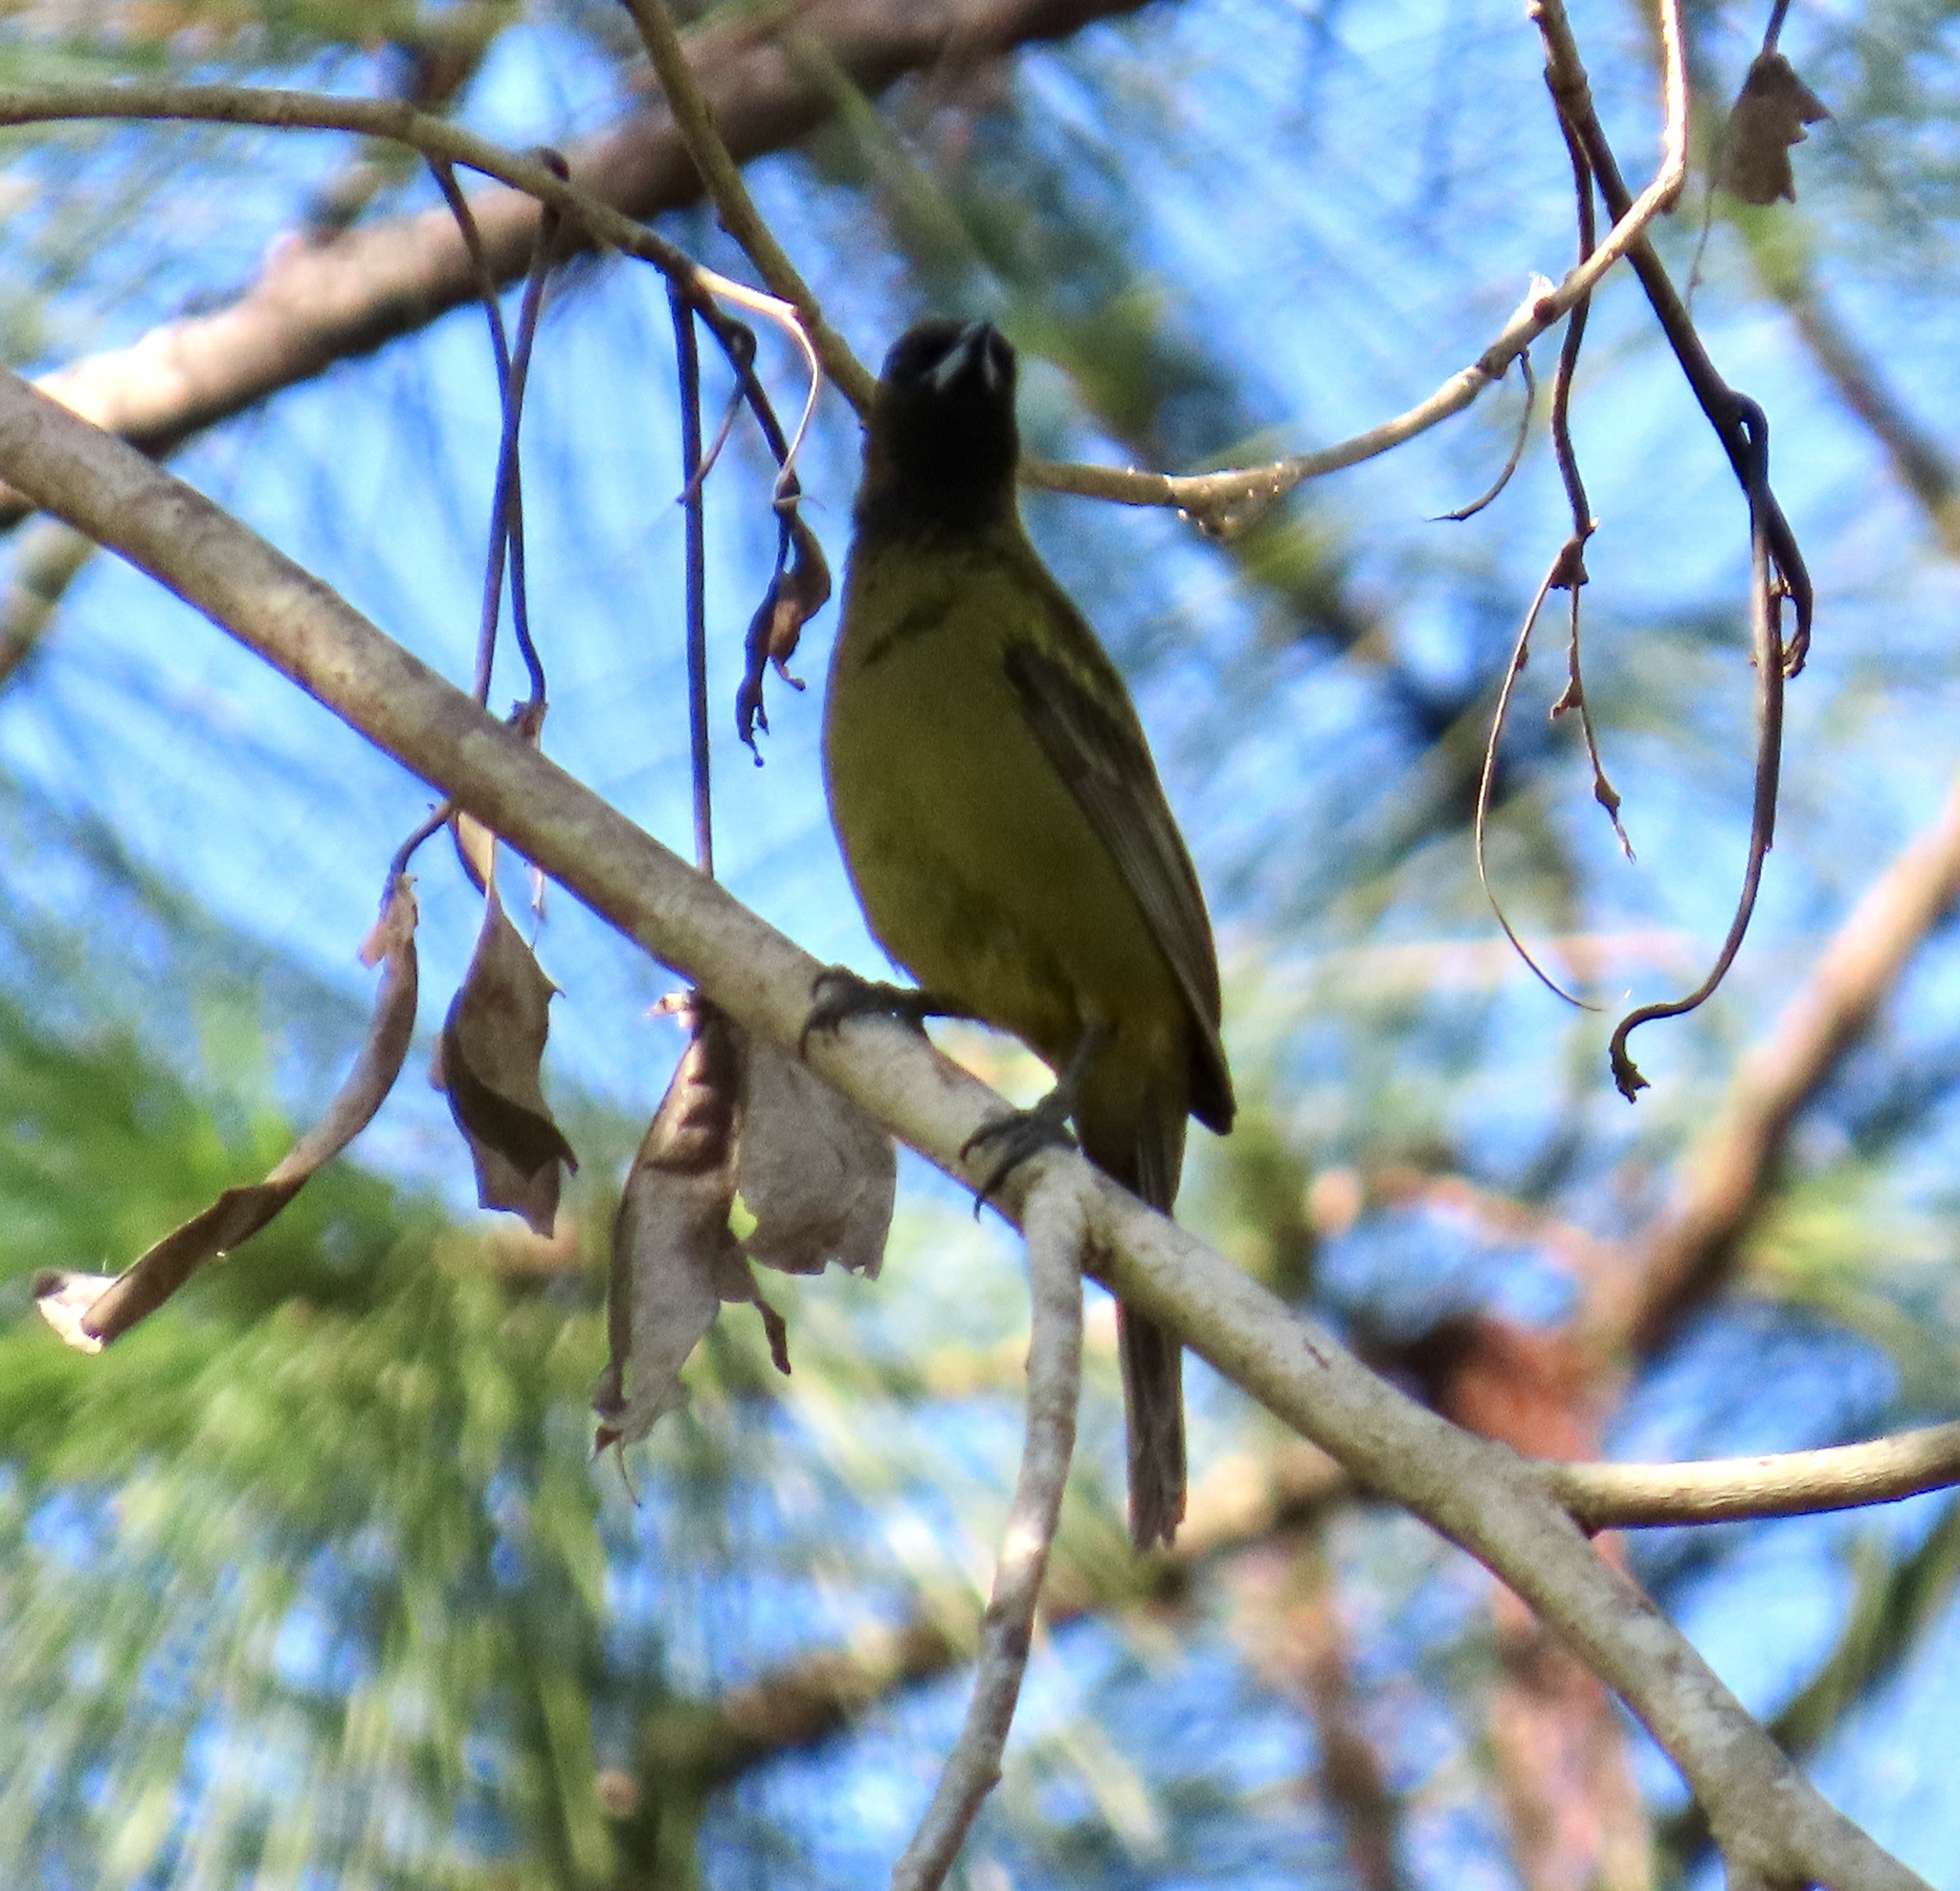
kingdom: Animalia
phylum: Chordata
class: Aves
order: Passeriformes
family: Icteridae
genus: Icterus
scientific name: Icterus dominicensis
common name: Hispaniolan oriole
